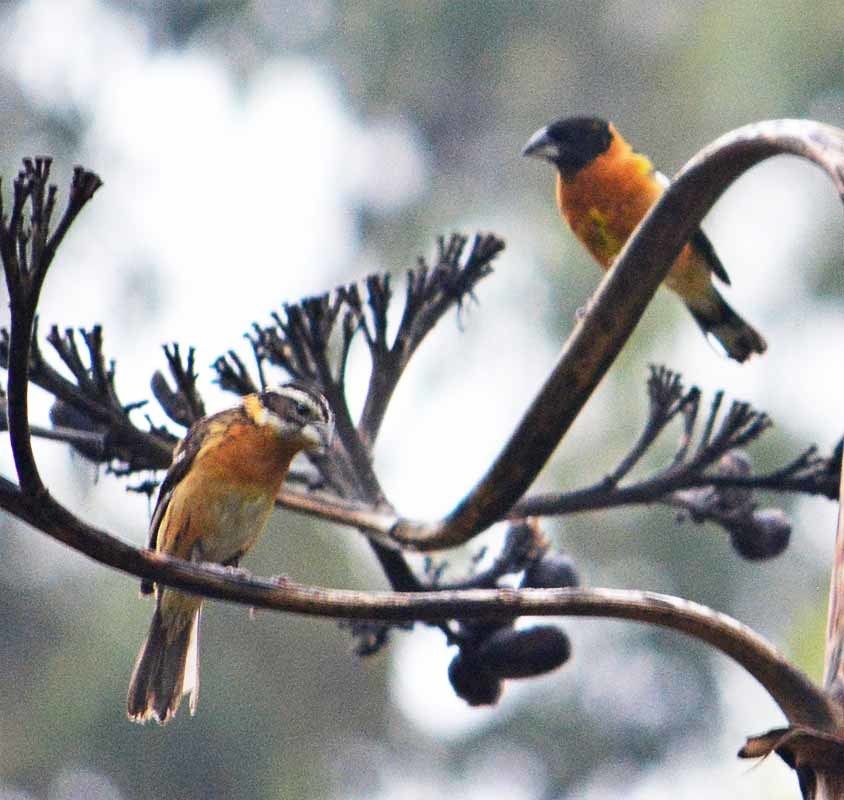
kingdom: Animalia
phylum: Chordata
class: Aves
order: Passeriformes
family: Cardinalidae
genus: Pheucticus
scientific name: Pheucticus melanocephalus
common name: Black-headed grosbeak
